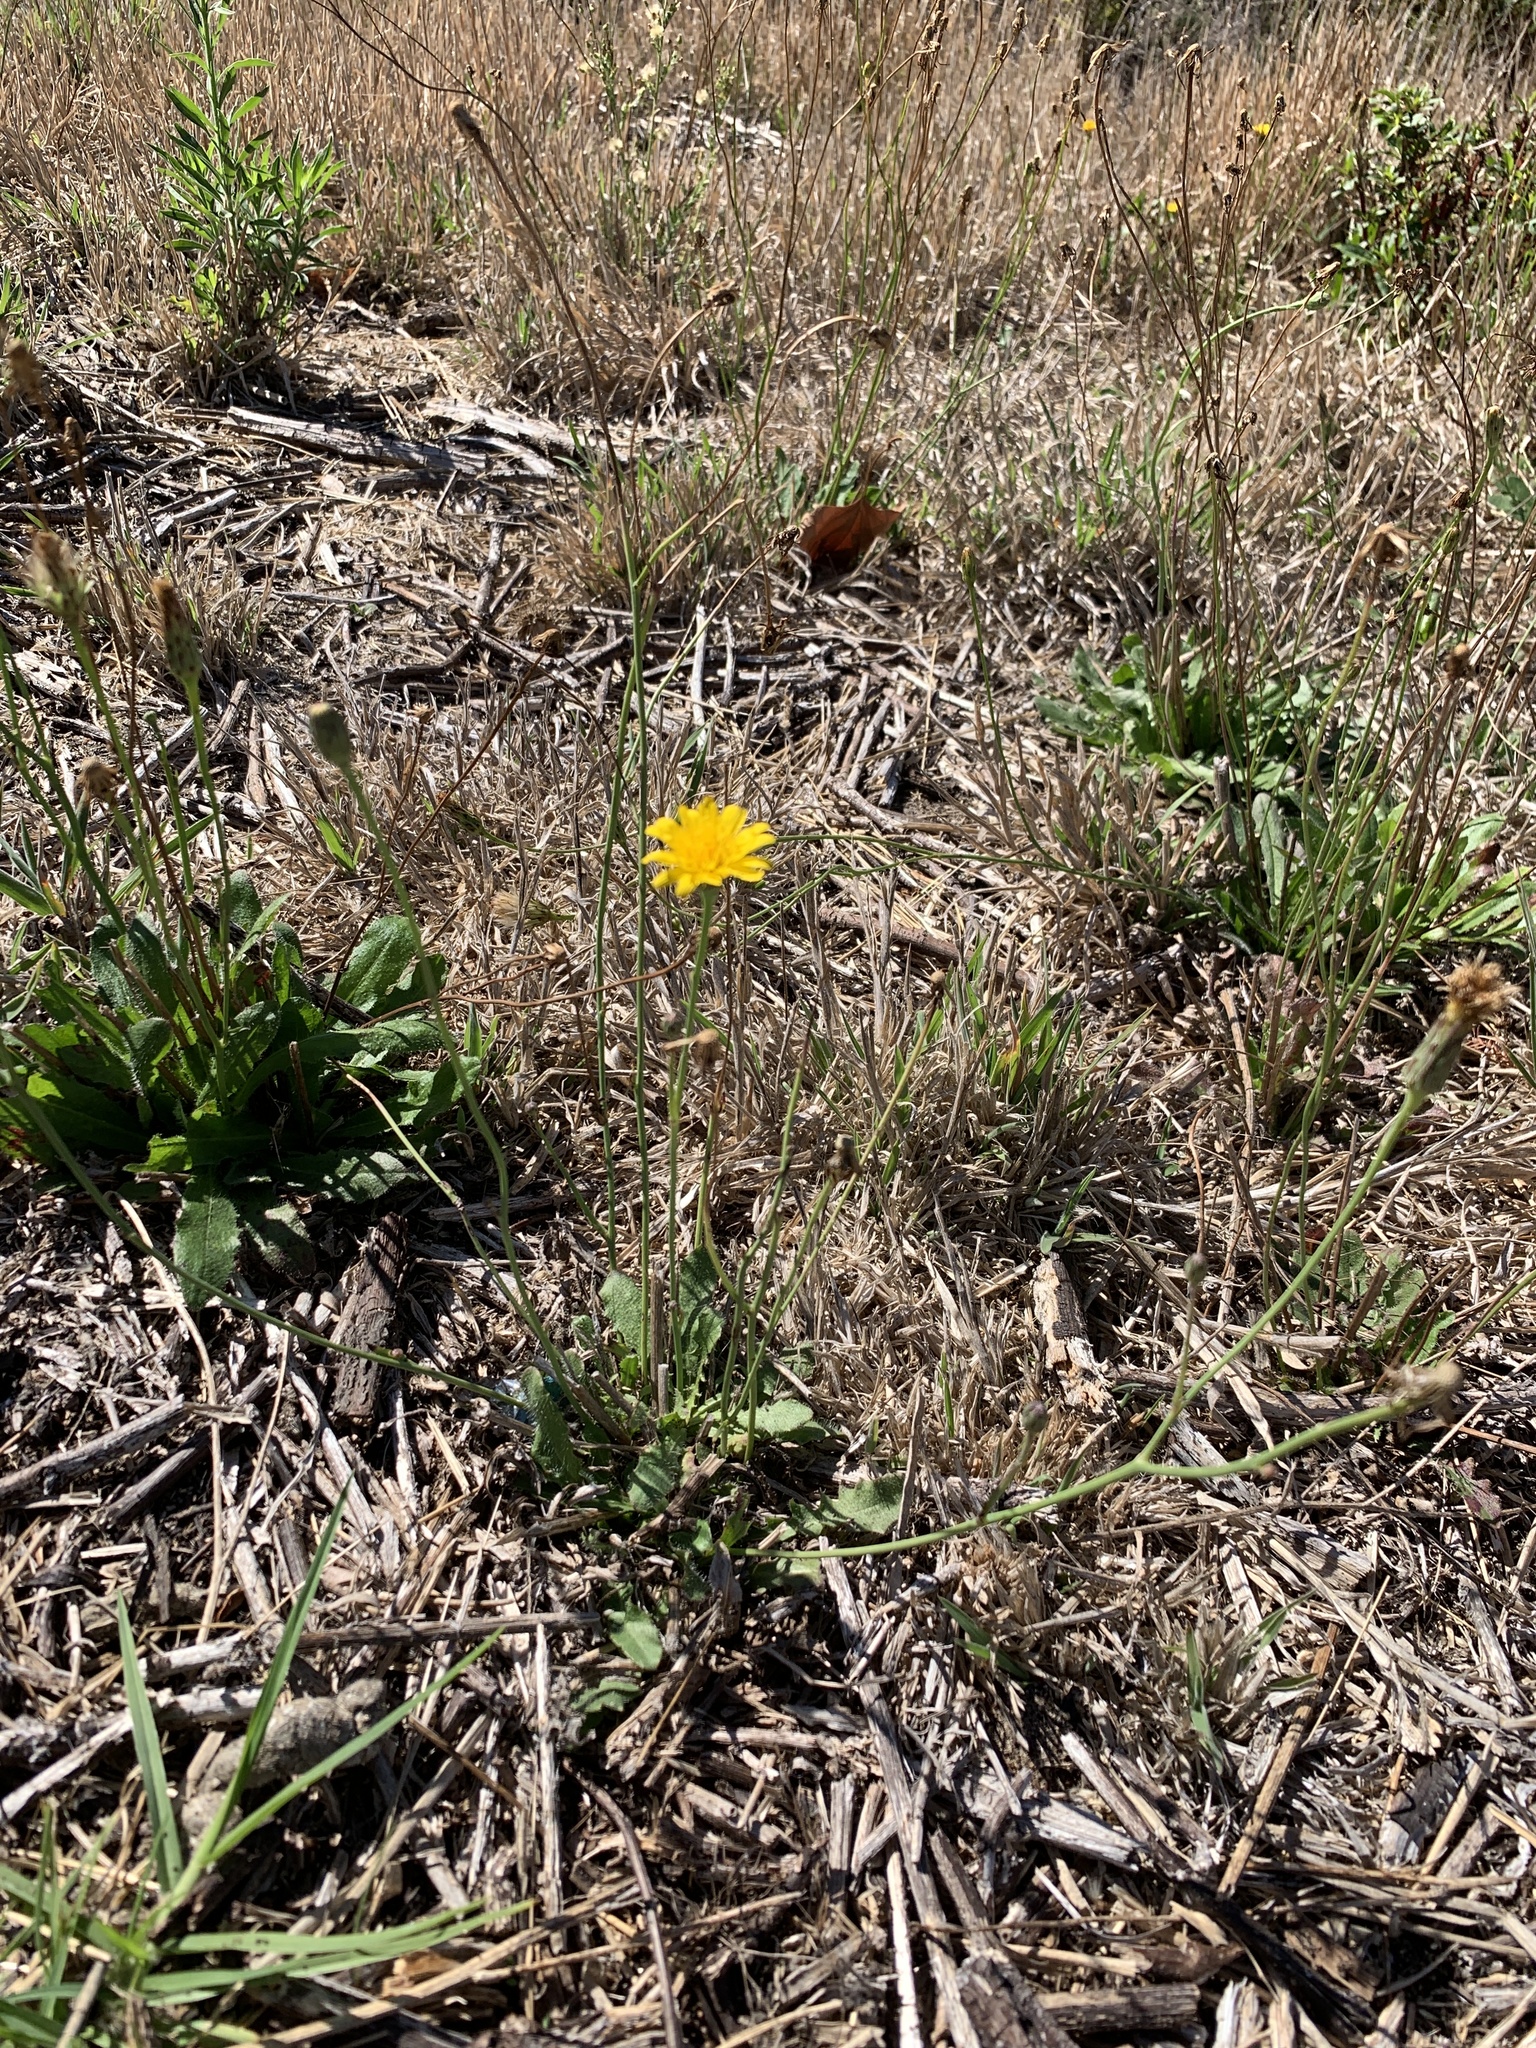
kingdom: Plantae
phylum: Tracheophyta
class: Magnoliopsida
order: Asterales
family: Asteraceae
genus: Hypochaeris
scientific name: Hypochaeris radicata
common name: Flatweed
